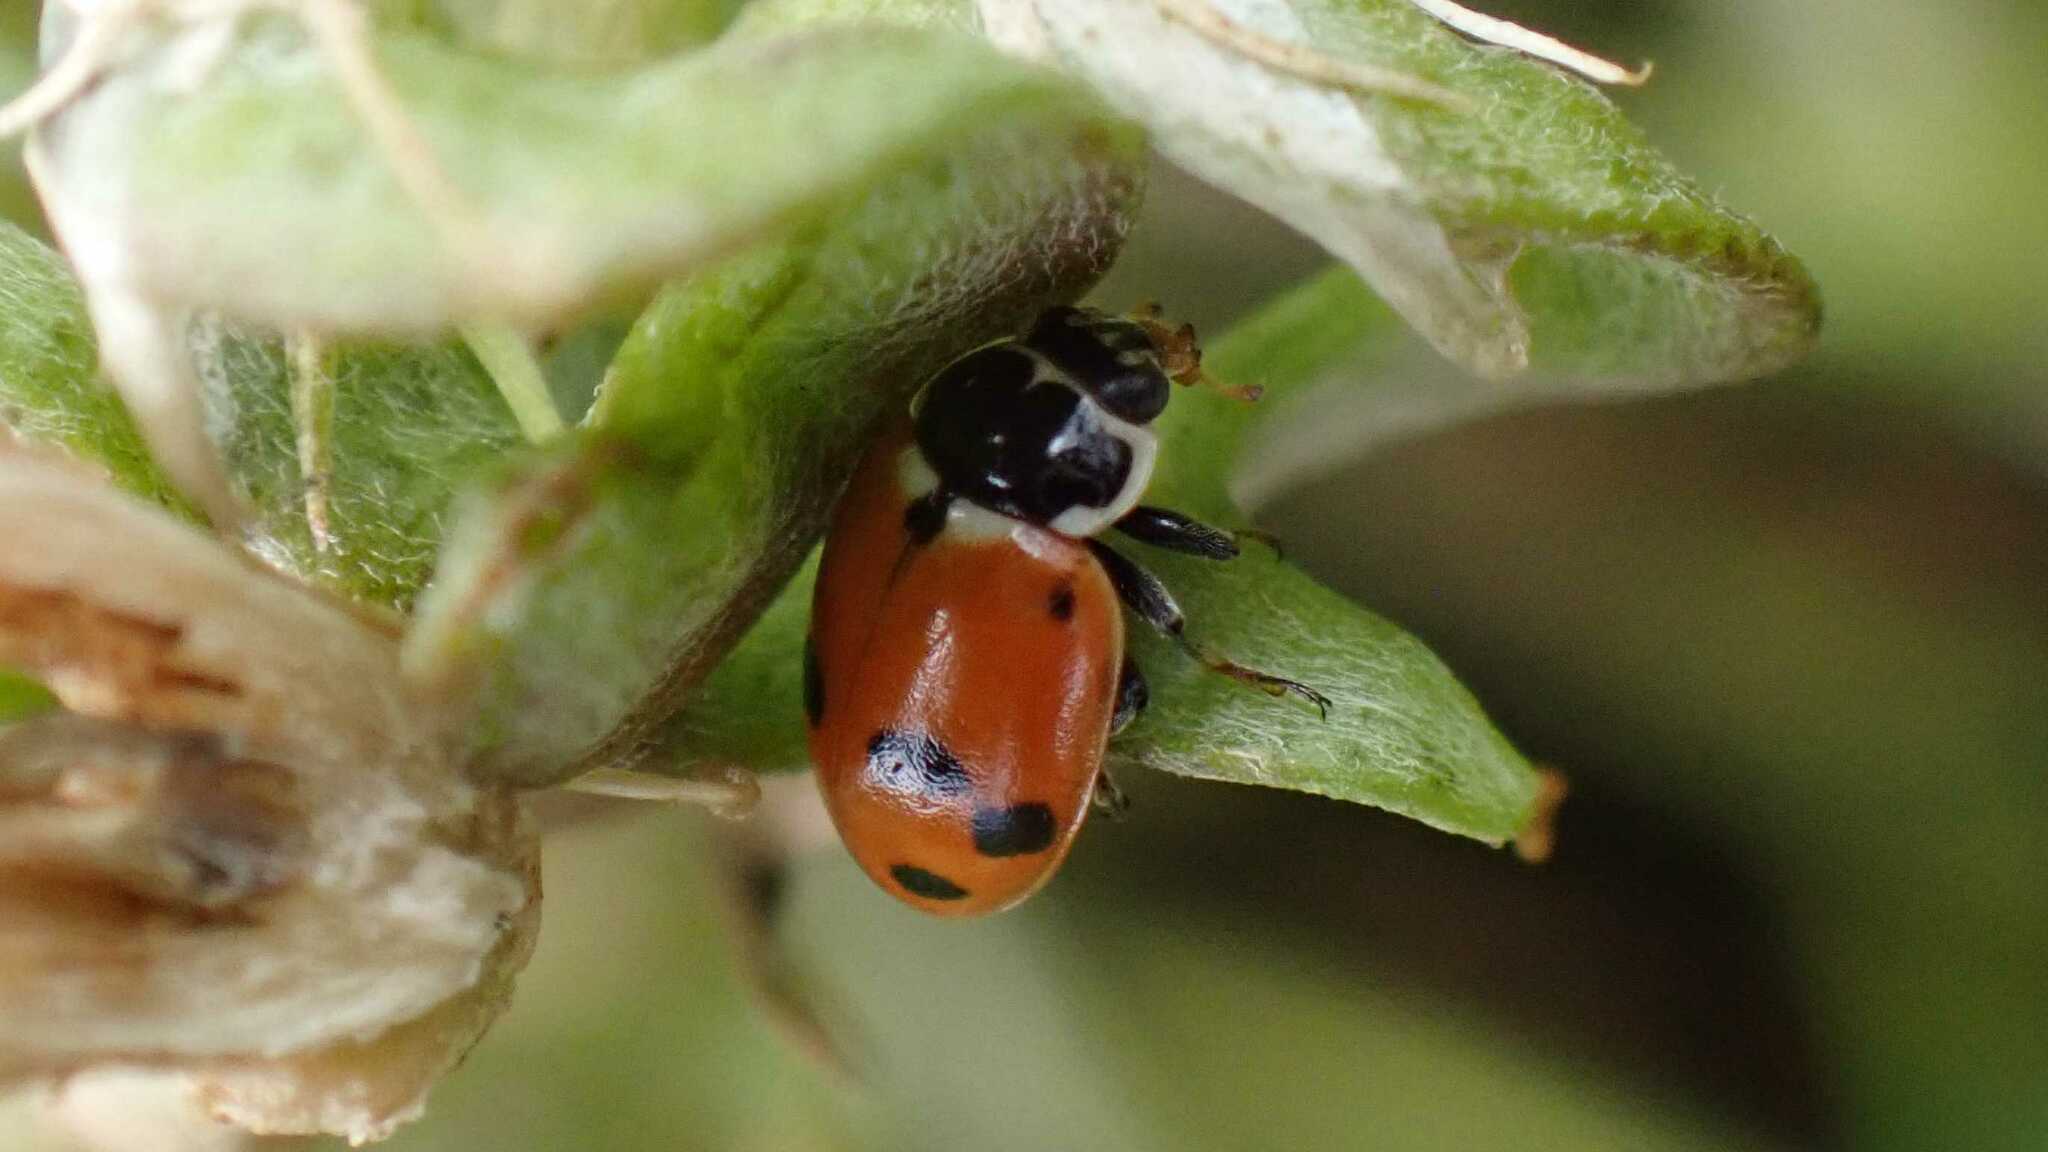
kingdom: Animalia
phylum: Arthropoda
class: Insecta
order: Coleoptera
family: Coccinellidae
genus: Hippodamia
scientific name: Hippodamia variegata
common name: Ladybird beetle
